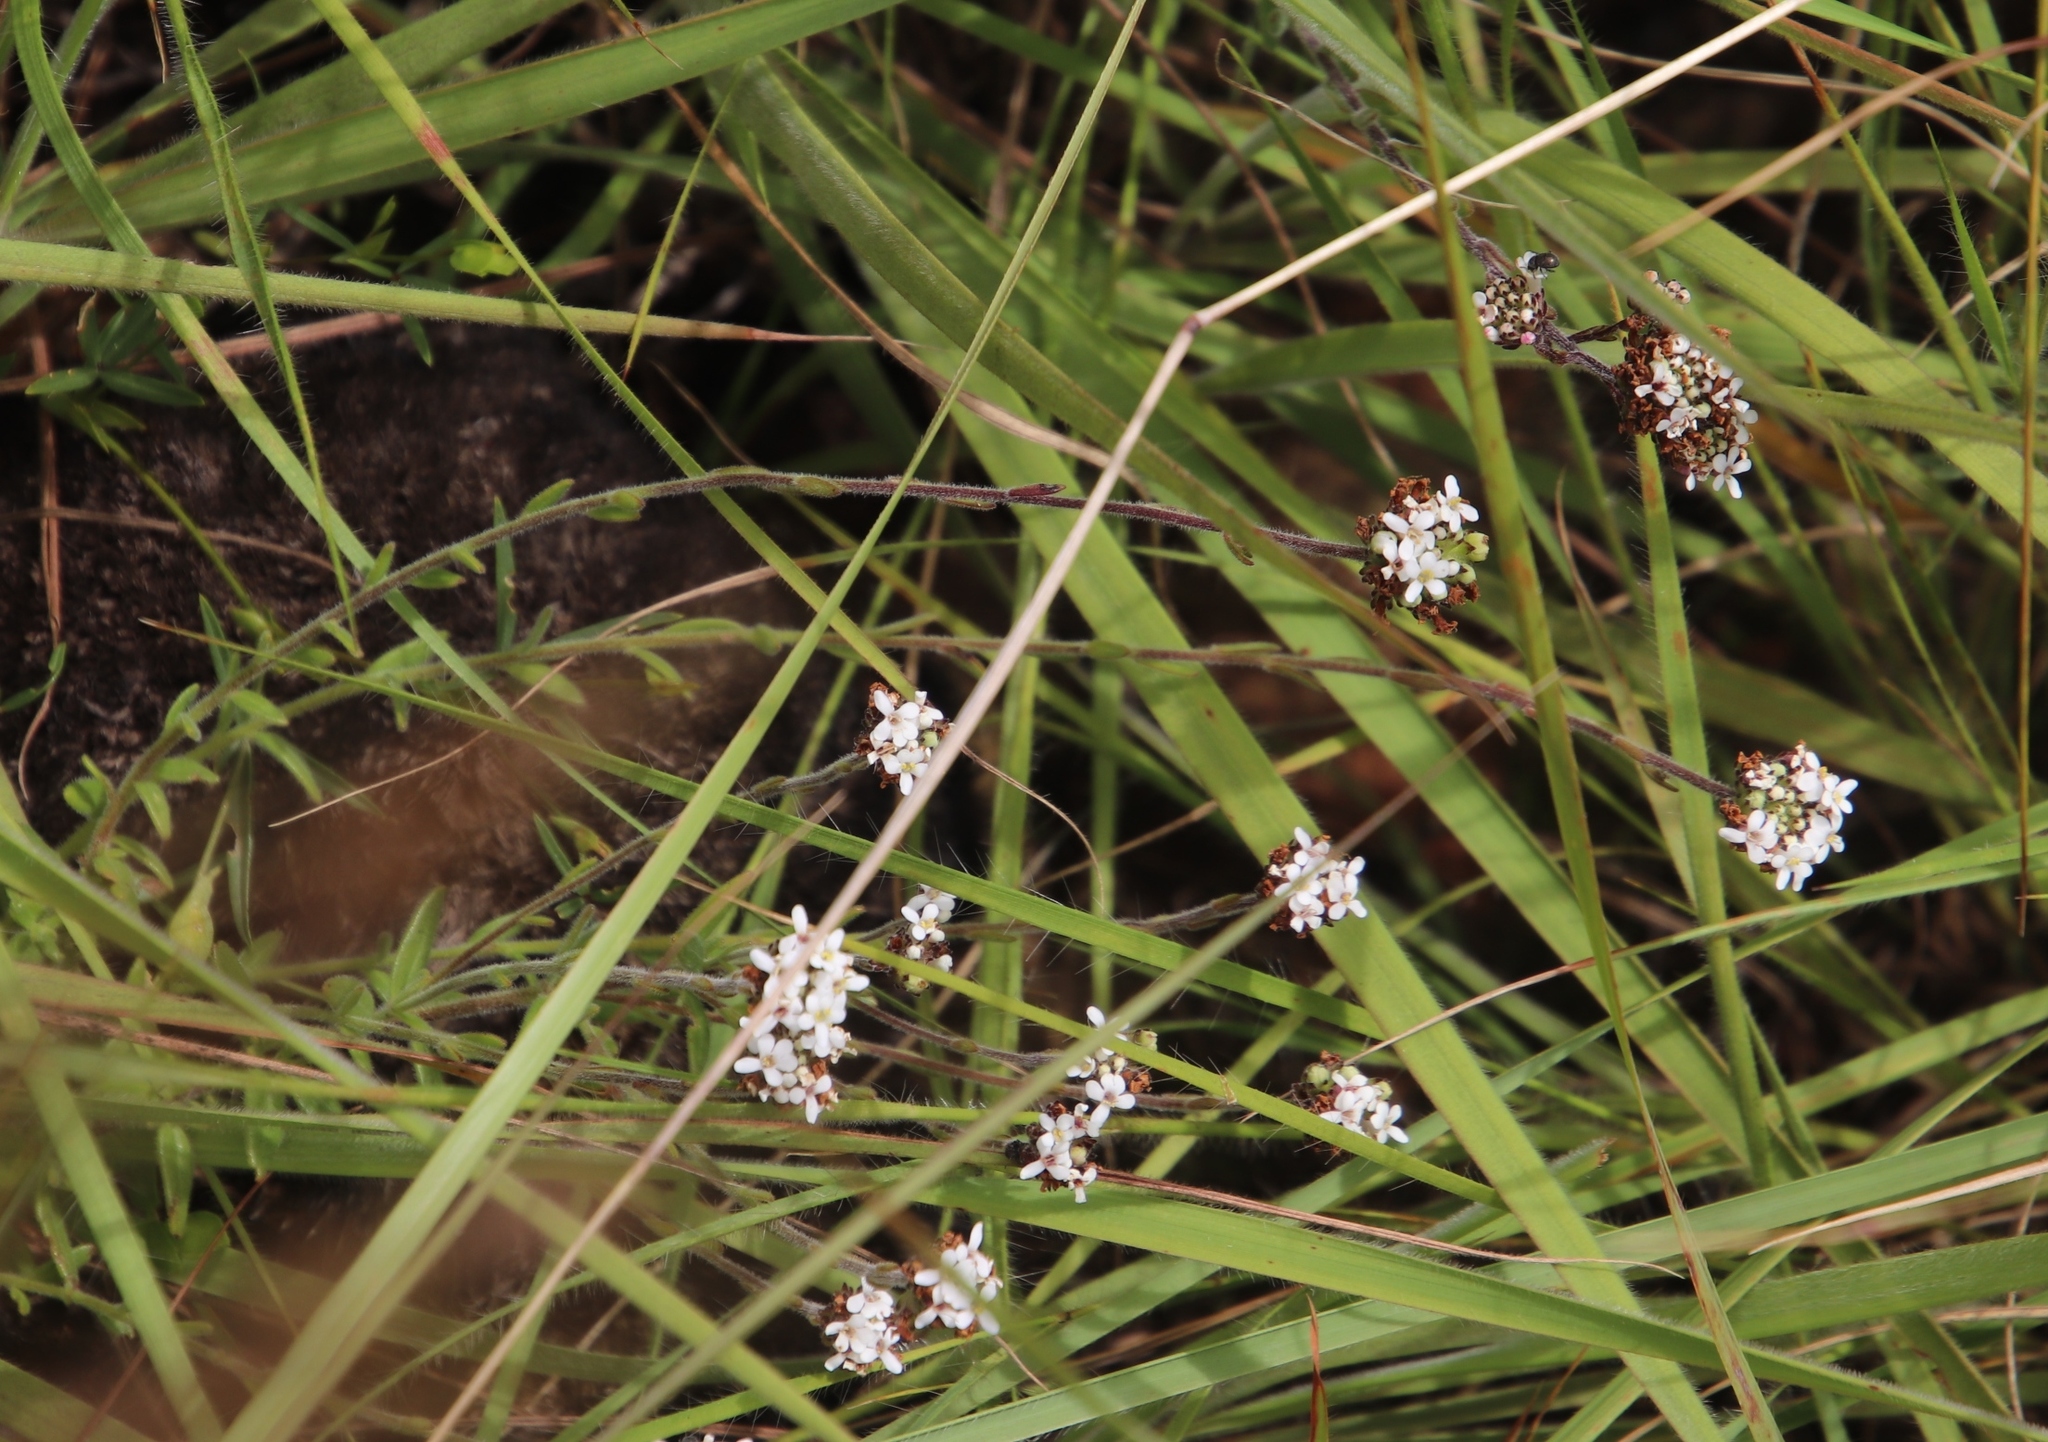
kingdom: Plantae
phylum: Tracheophyta
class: Magnoliopsida
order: Lamiales
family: Scrophulariaceae
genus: Selago
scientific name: Selago atherstonei
